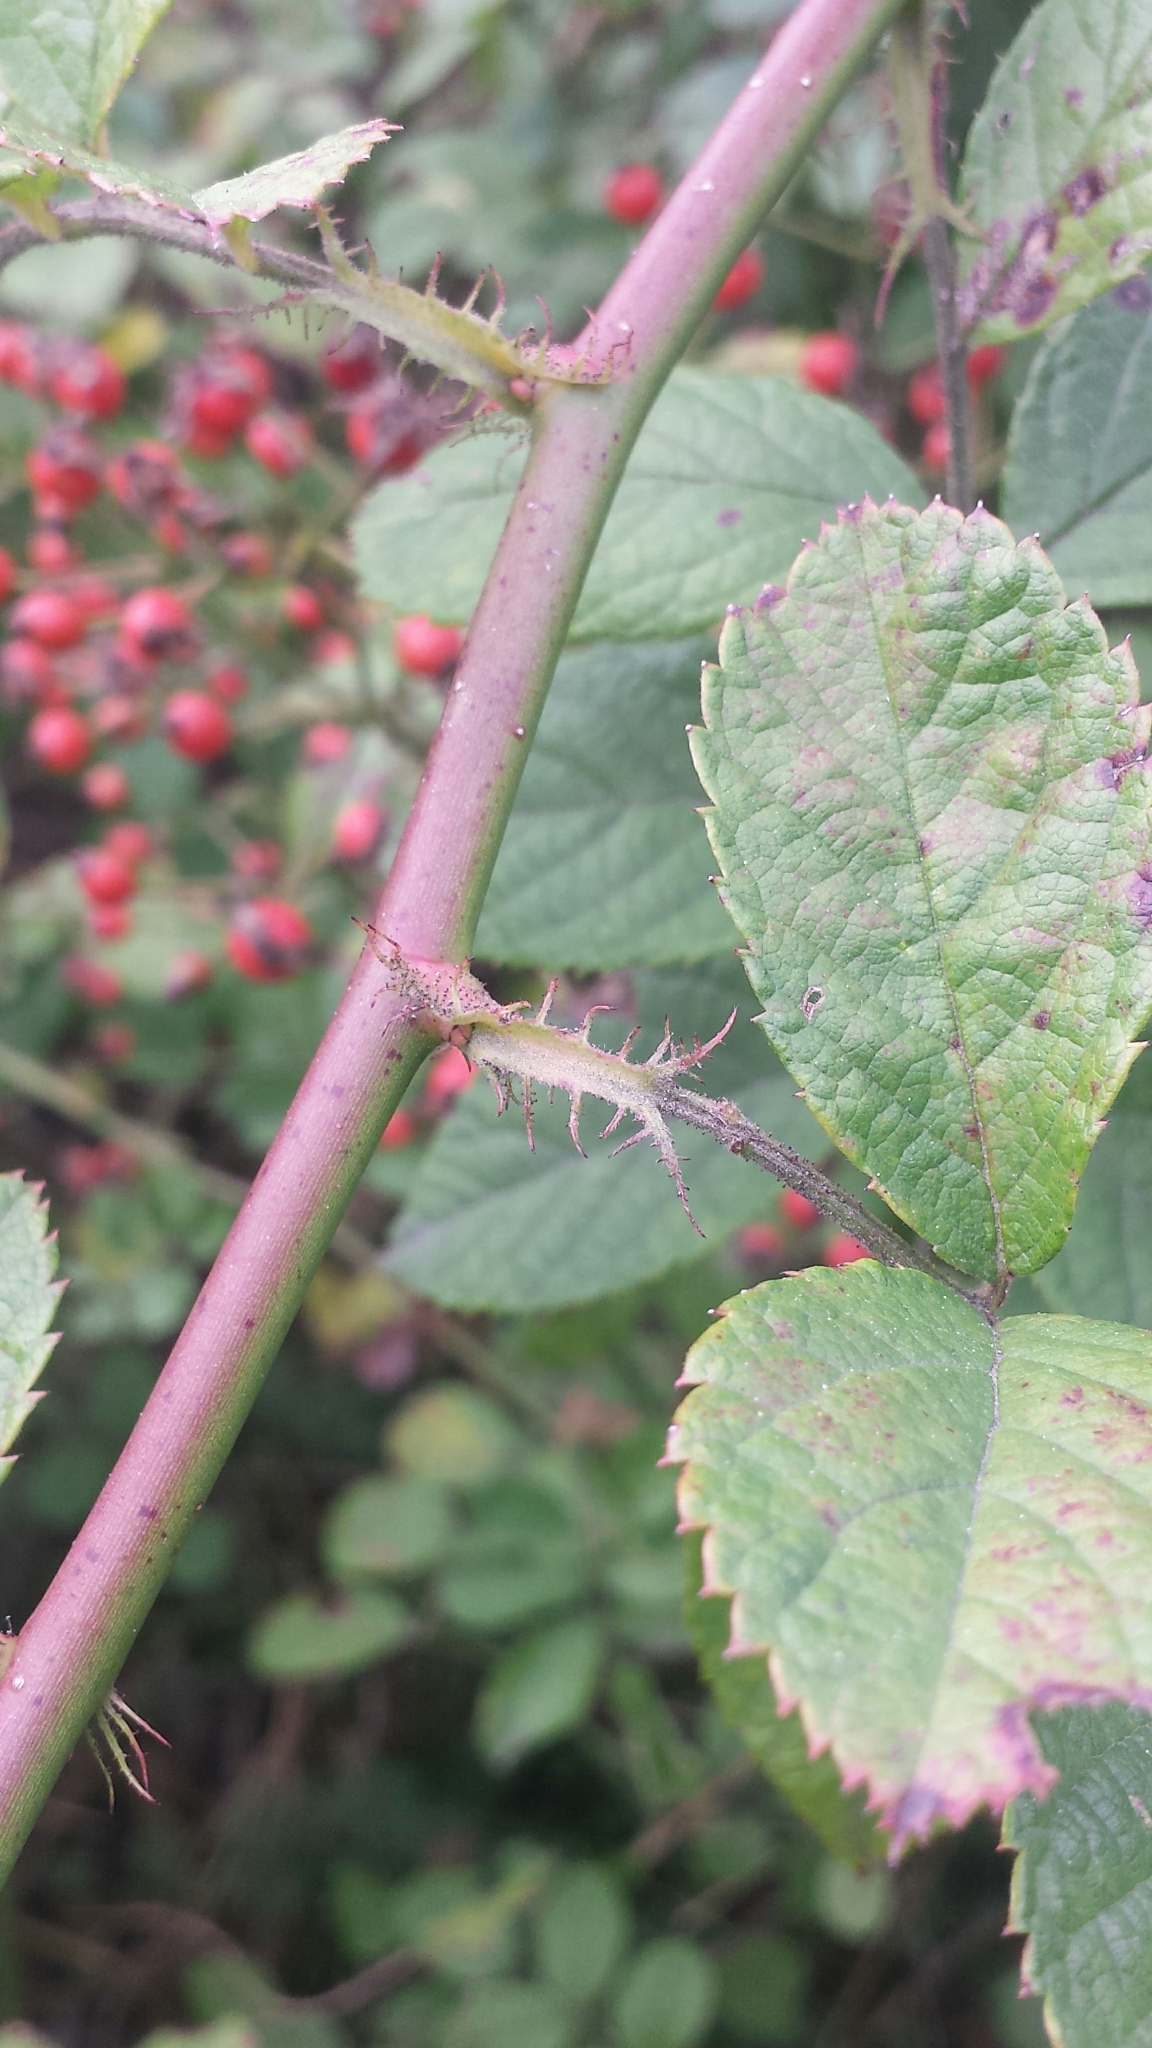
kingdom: Plantae
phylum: Tracheophyta
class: Magnoliopsida
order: Rosales
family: Rosaceae
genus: Rosa
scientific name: Rosa multiflora
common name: Multiflora rose
